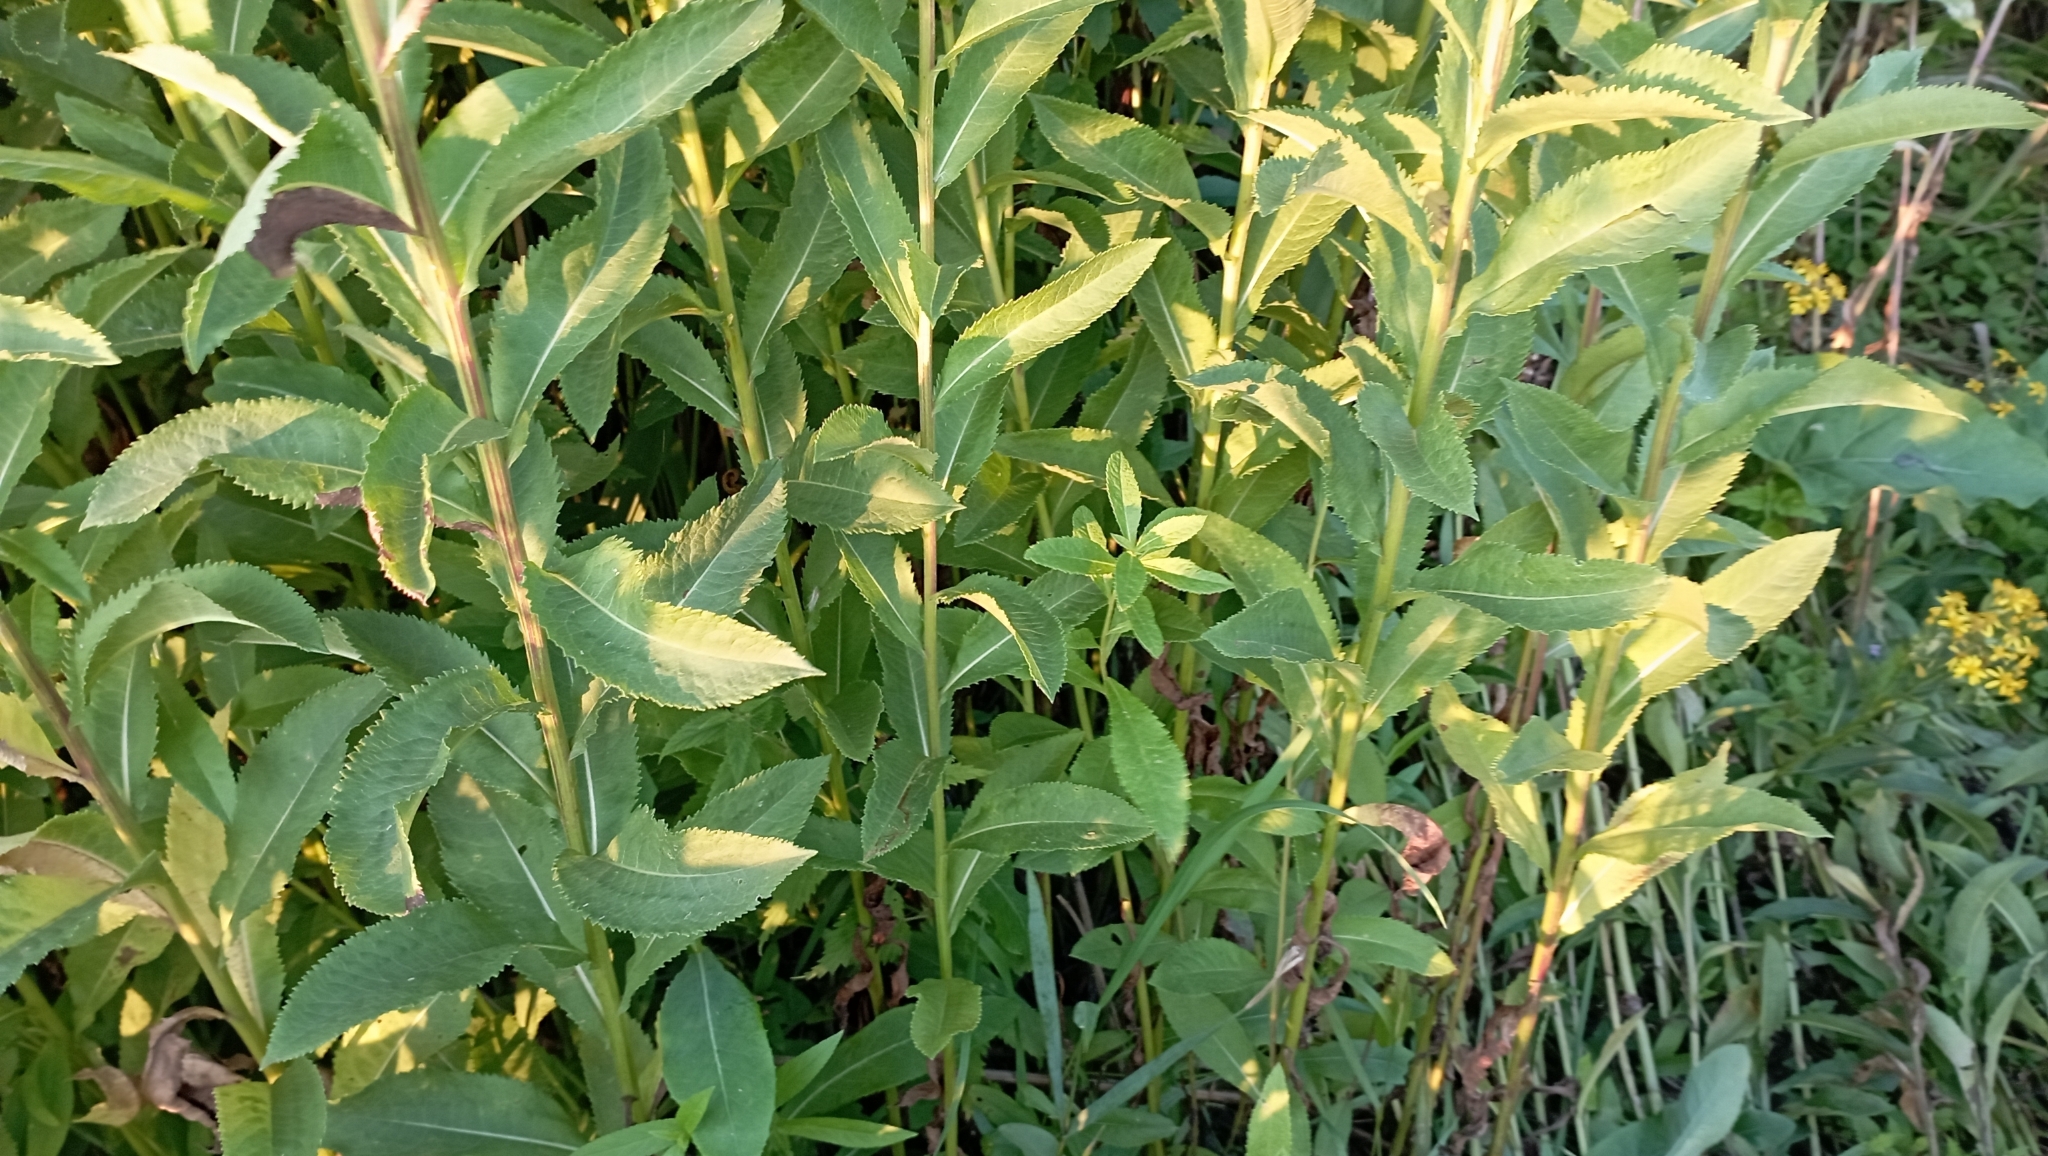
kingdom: Plantae
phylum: Tracheophyta
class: Magnoliopsida
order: Asterales
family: Asteraceae
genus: Senecio
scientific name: Senecio sarracenicus
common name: Broad-leaved ragwort
